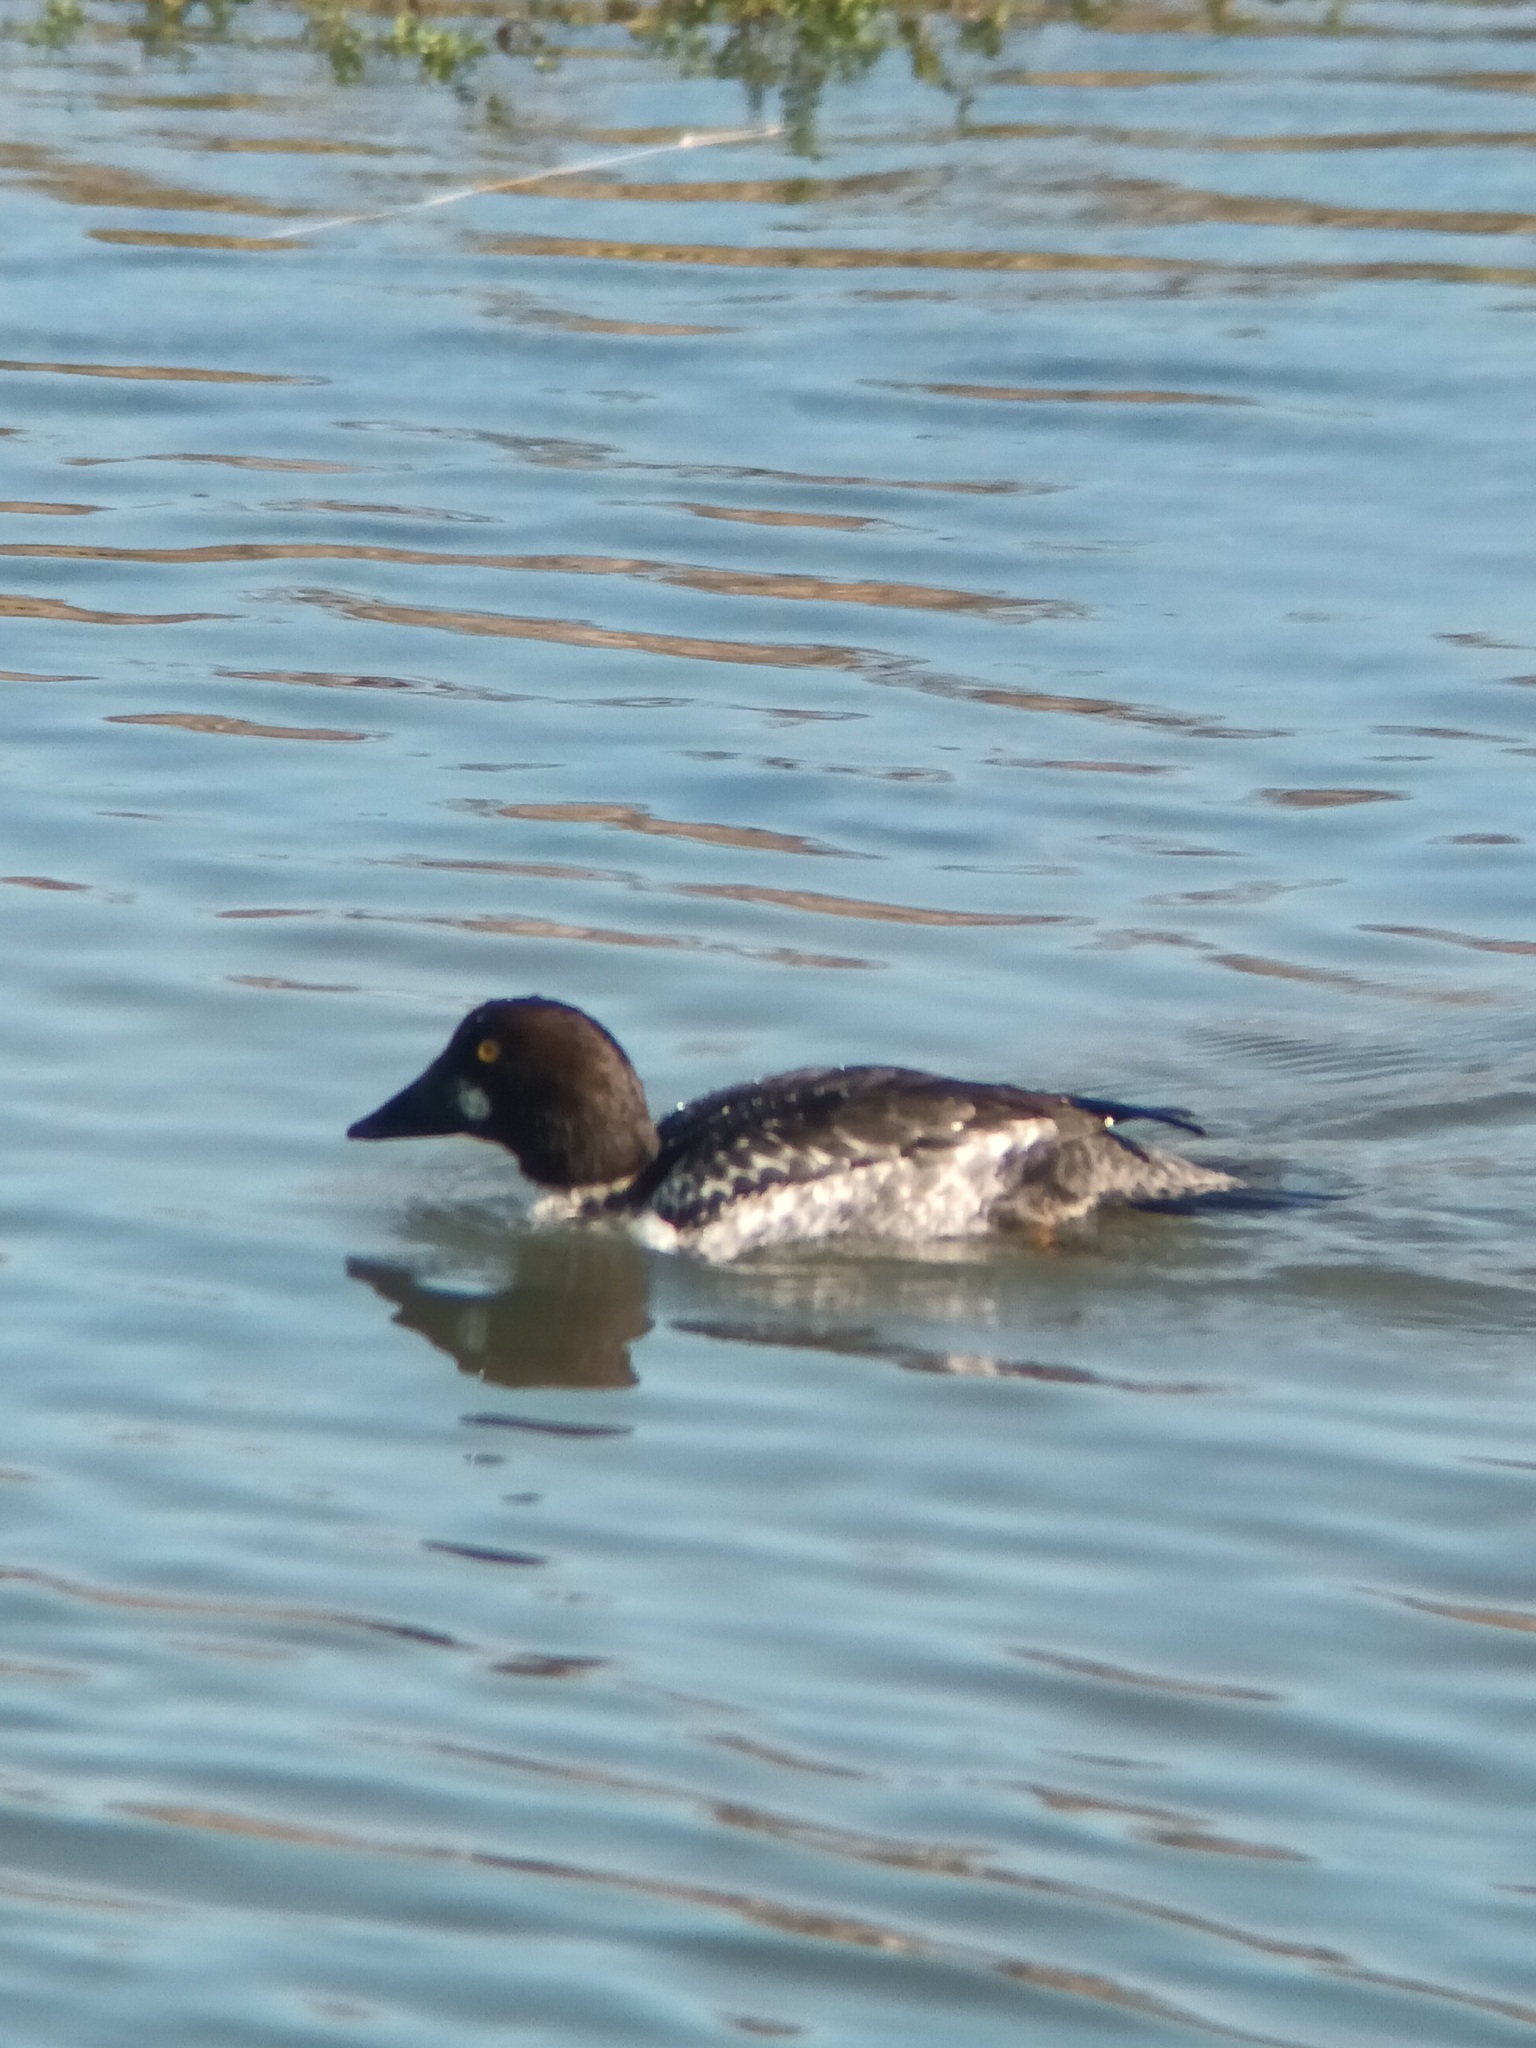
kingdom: Animalia
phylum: Chordata
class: Aves
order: Anseriformes
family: Anatidae
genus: Bucephala
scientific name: Bucephala clangula
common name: Common goldeneye
